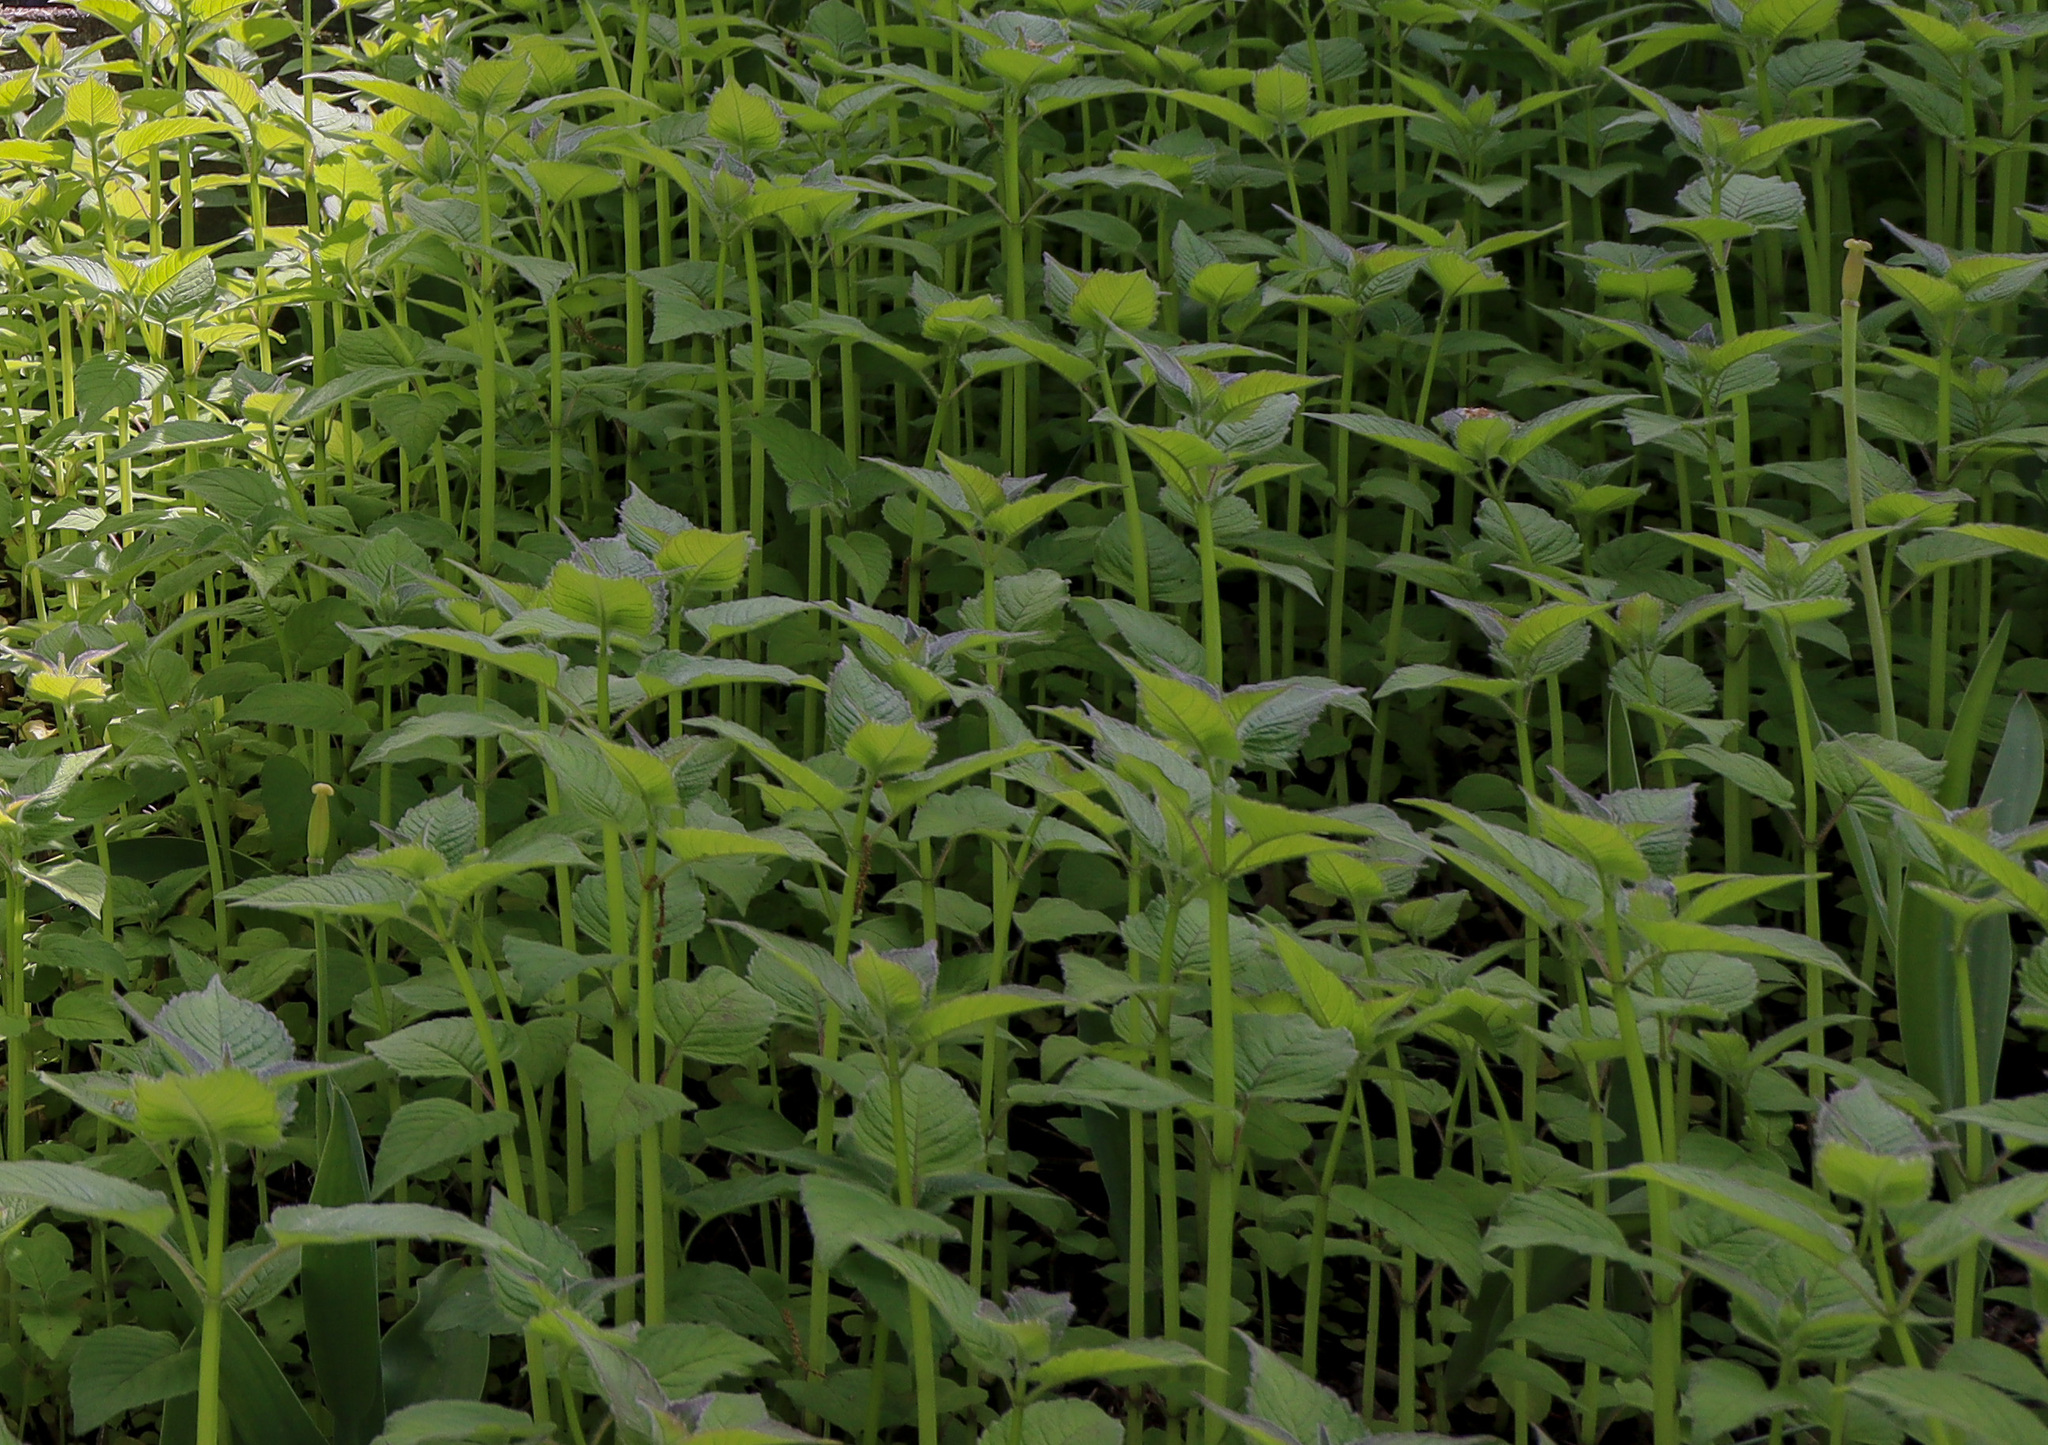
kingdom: Plantae
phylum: Tracheophyta
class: Magnoliopsida
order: Brassicales
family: Brassicaceae
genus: Alliaria
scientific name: Alliaria petiolata
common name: Garlic mustard
